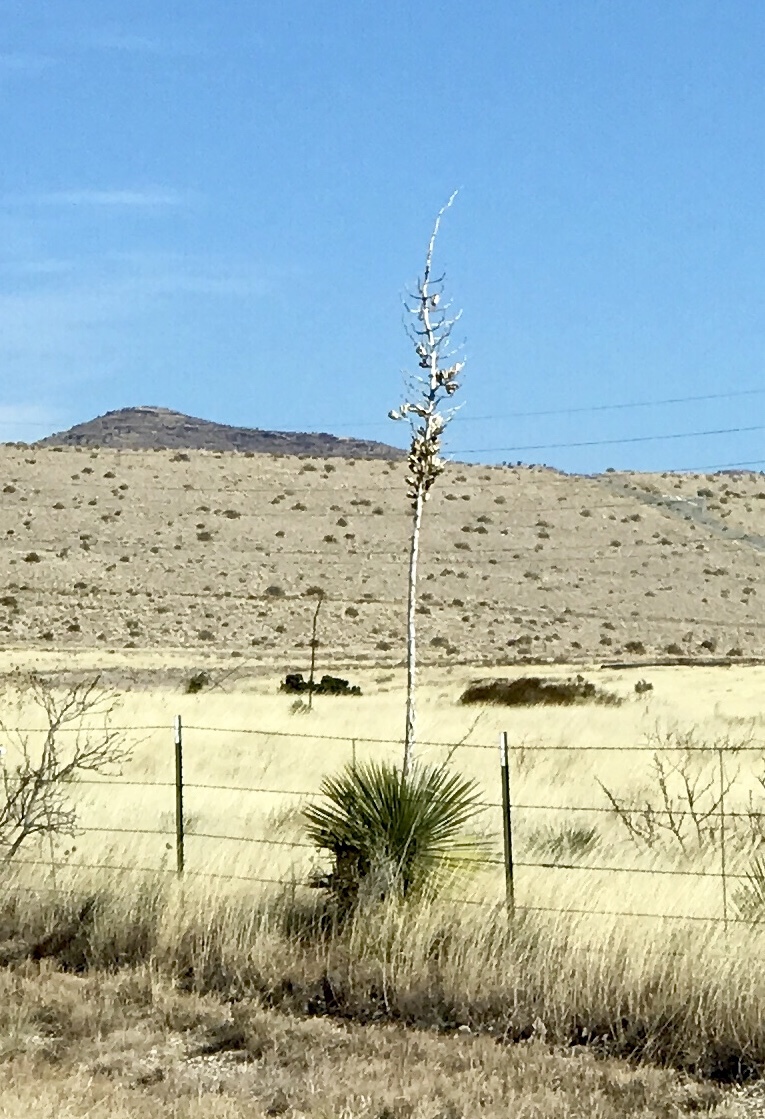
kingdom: Plantae
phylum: Tracheophyta
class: Liliopsida
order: Asparagales
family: Asparagaceae
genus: Yucca
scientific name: Yucca elata
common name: Palmella
